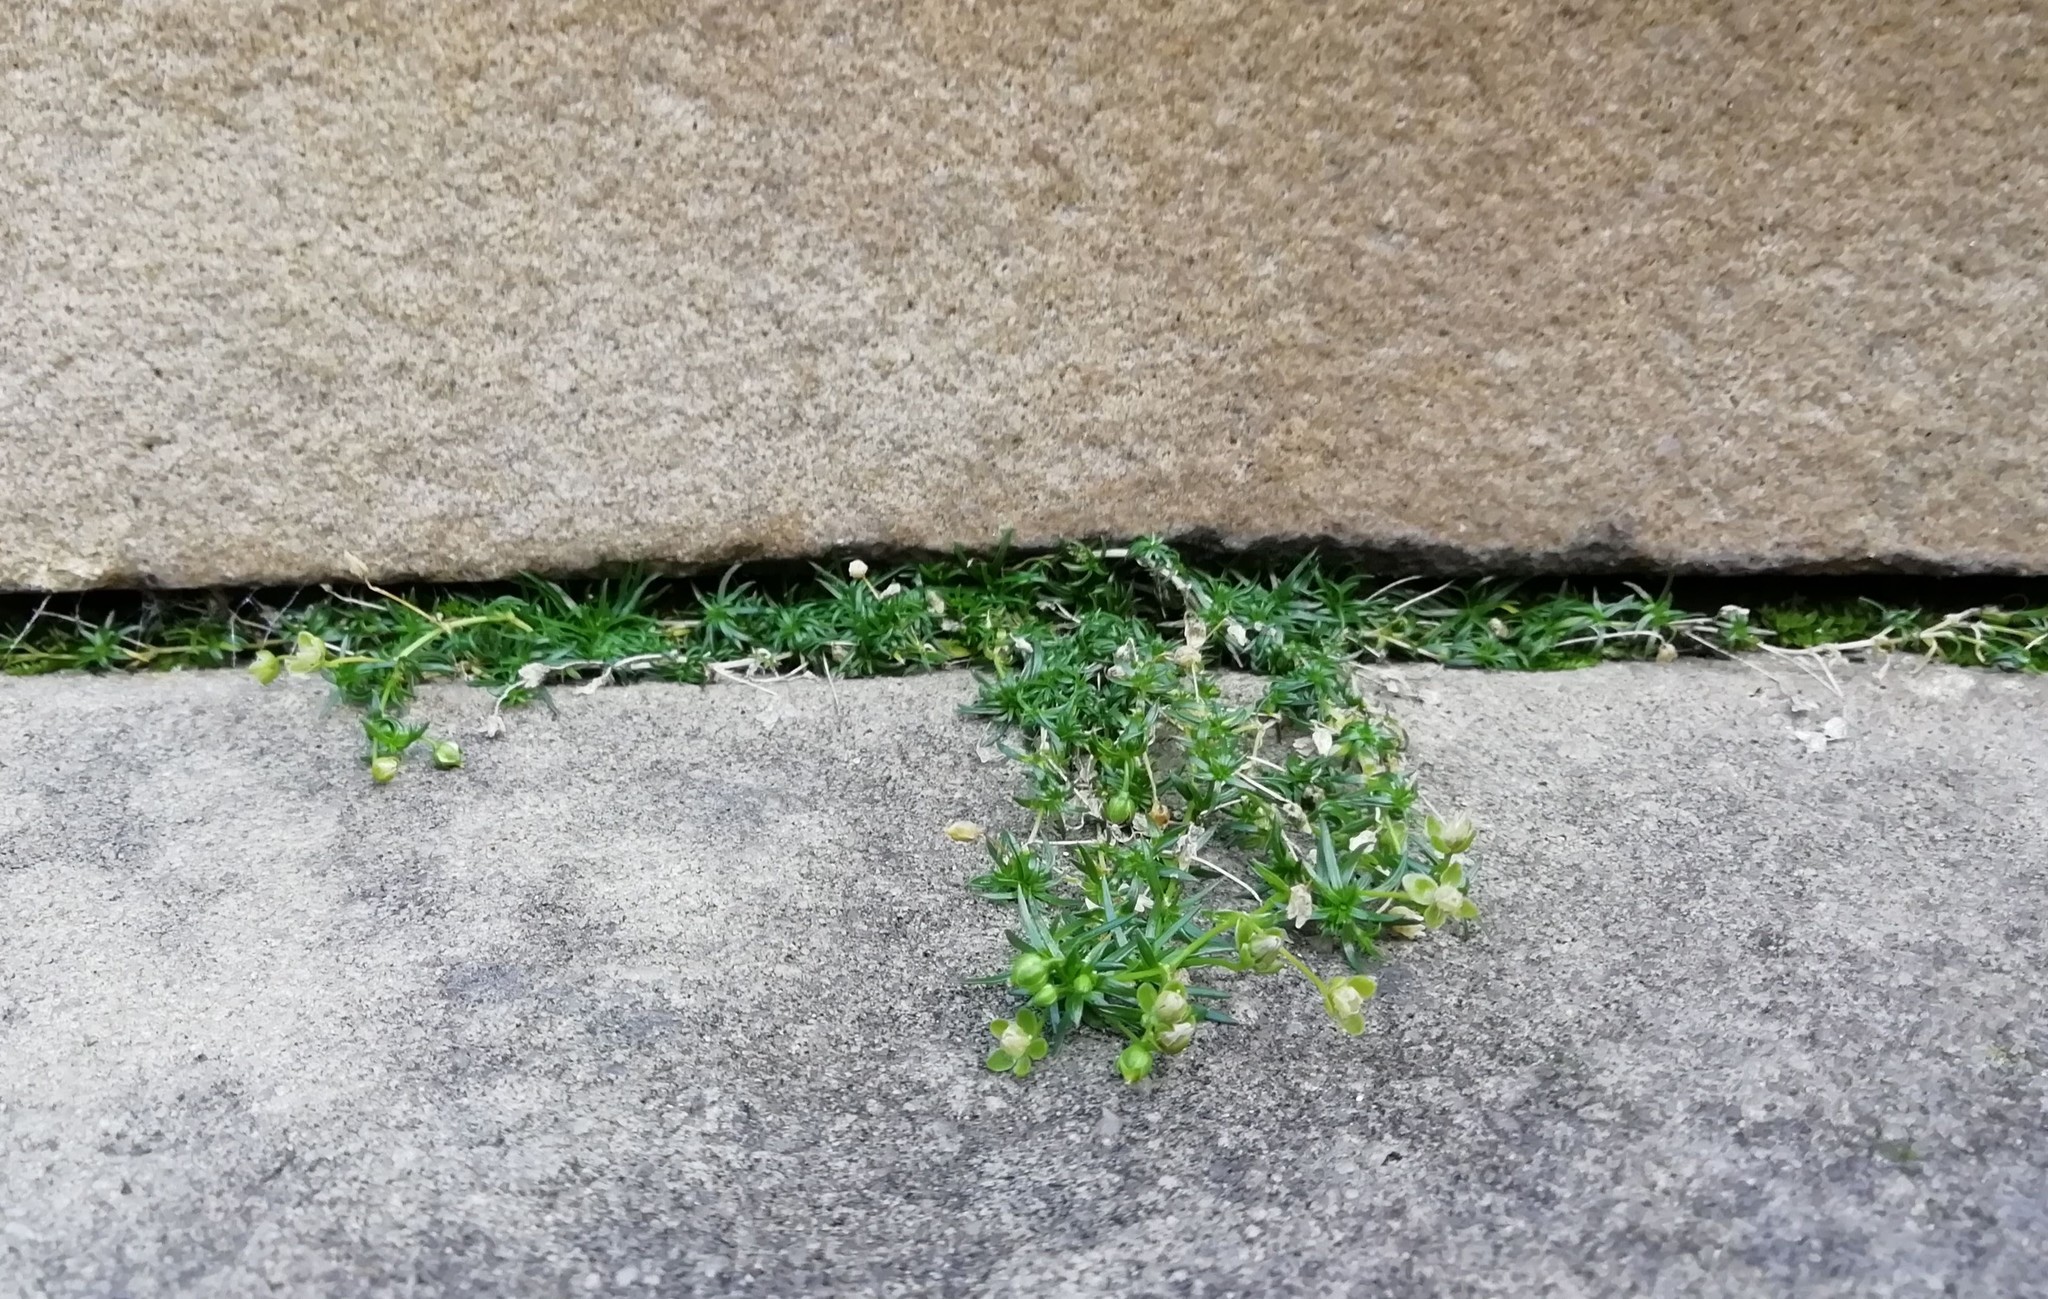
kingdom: Plantae
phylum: Tracheophyta
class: Magnoliopsida
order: Caryophyllales
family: Caryophyllaceae
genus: Sagina
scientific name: Sagina procumbens
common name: Procumbent pearlwort
